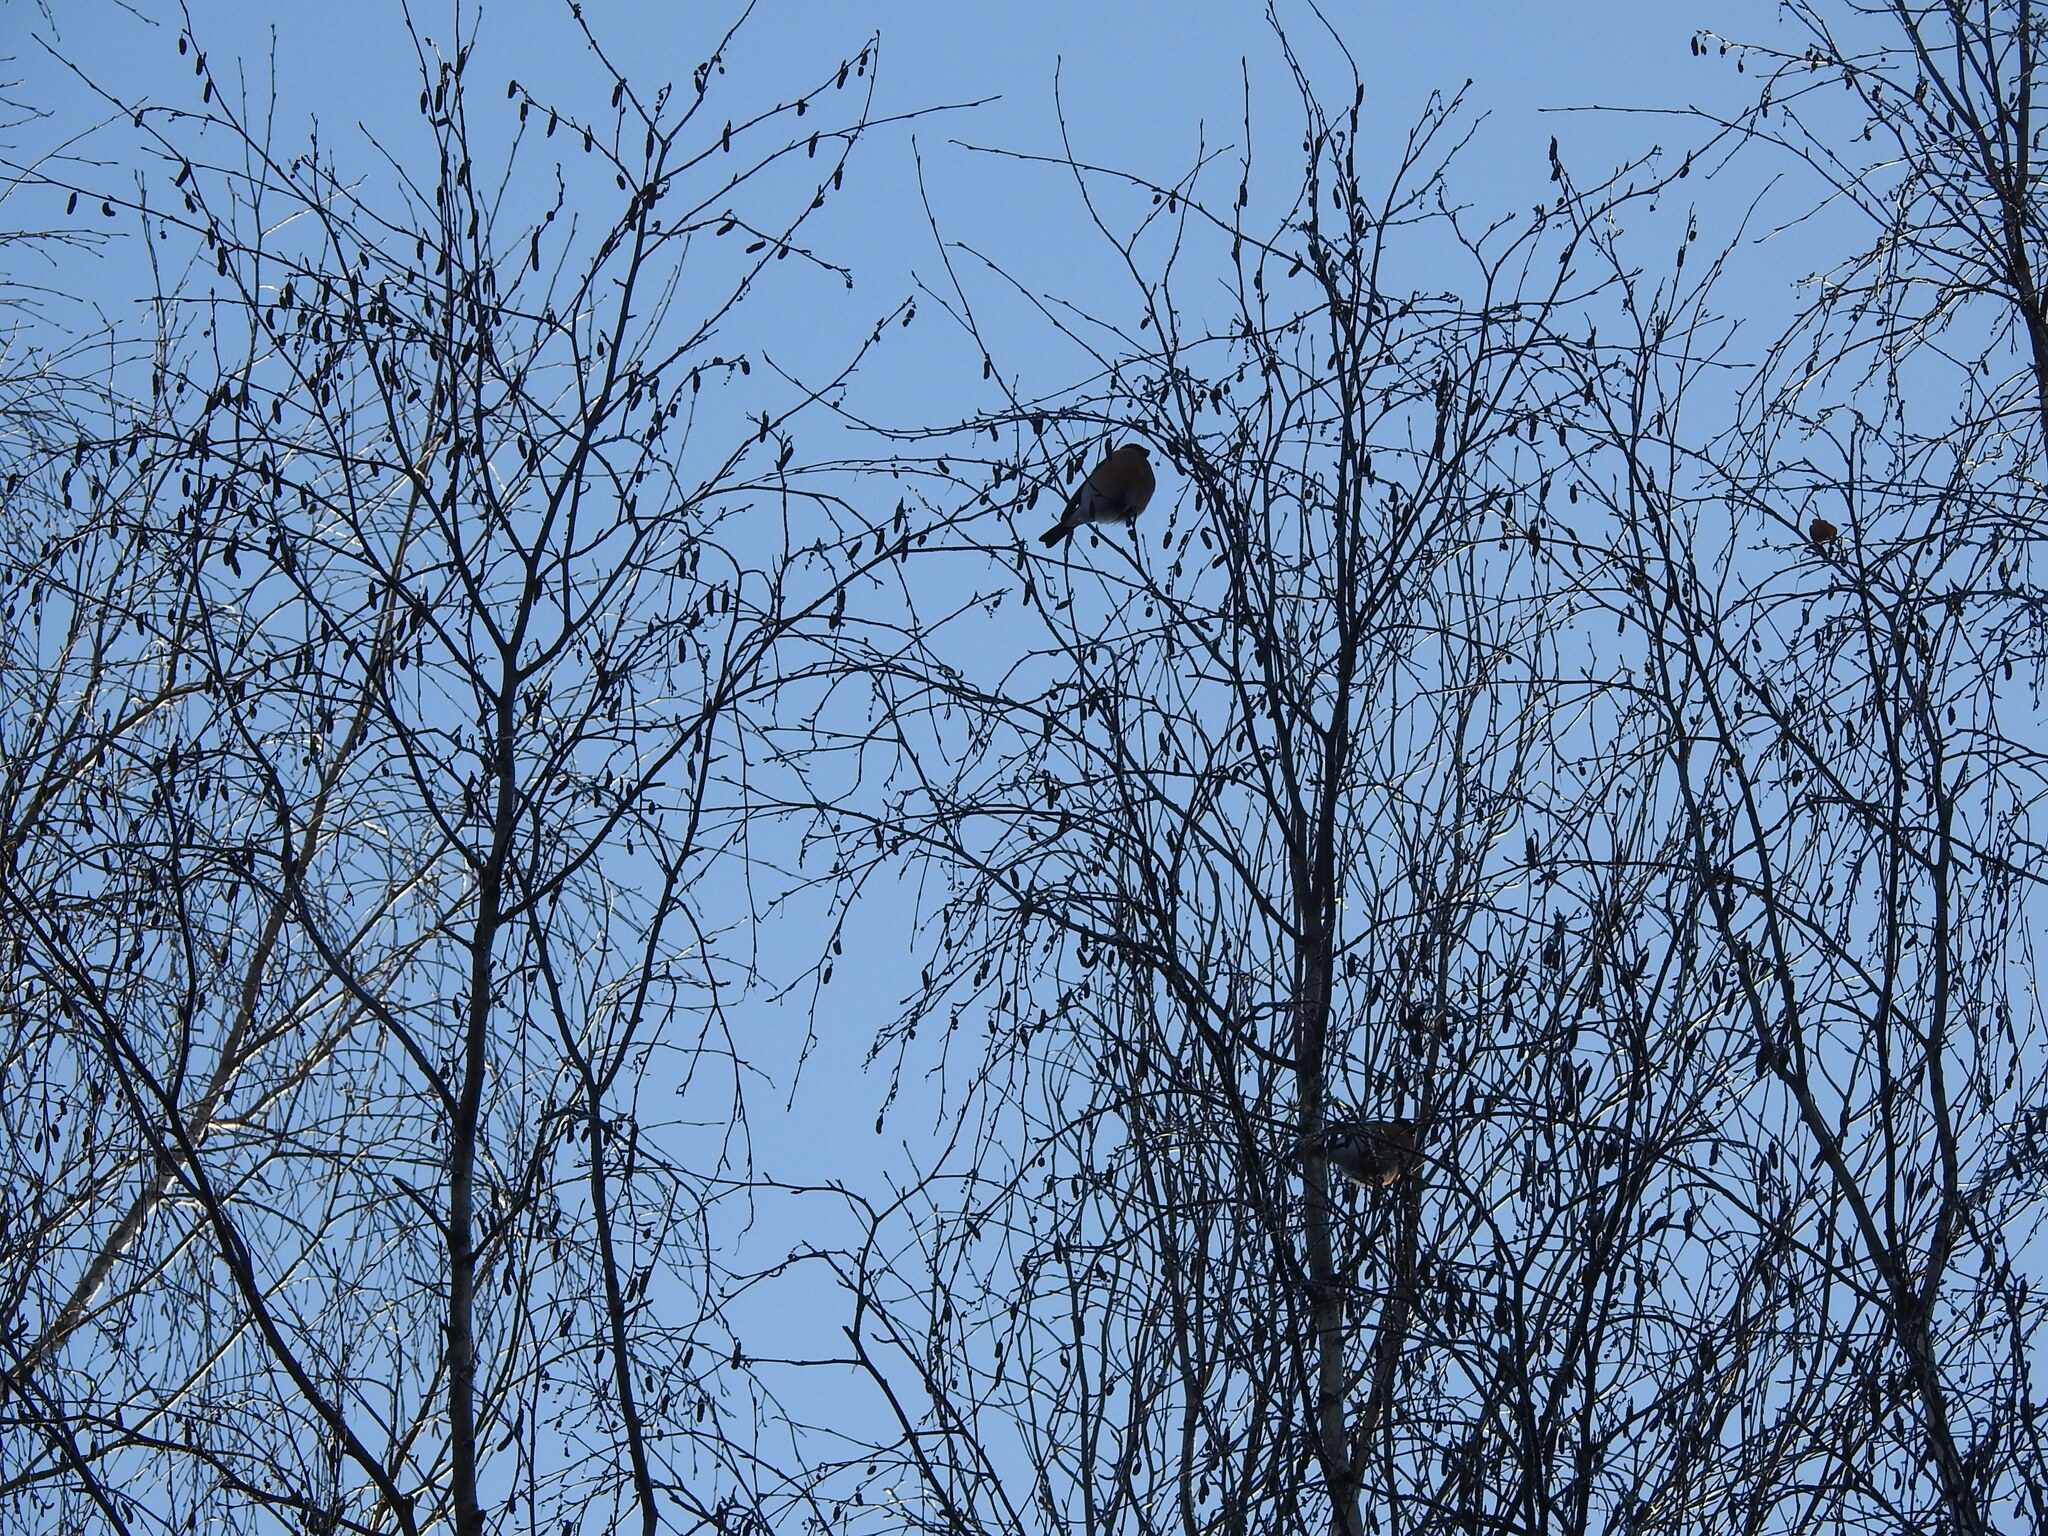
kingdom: Animalia
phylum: Chordata
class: Aves
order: Passeriformes
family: Fringillidae
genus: Pyrrhula
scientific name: Pyrrhula pyrrhula
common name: Eurasian bullfinch
